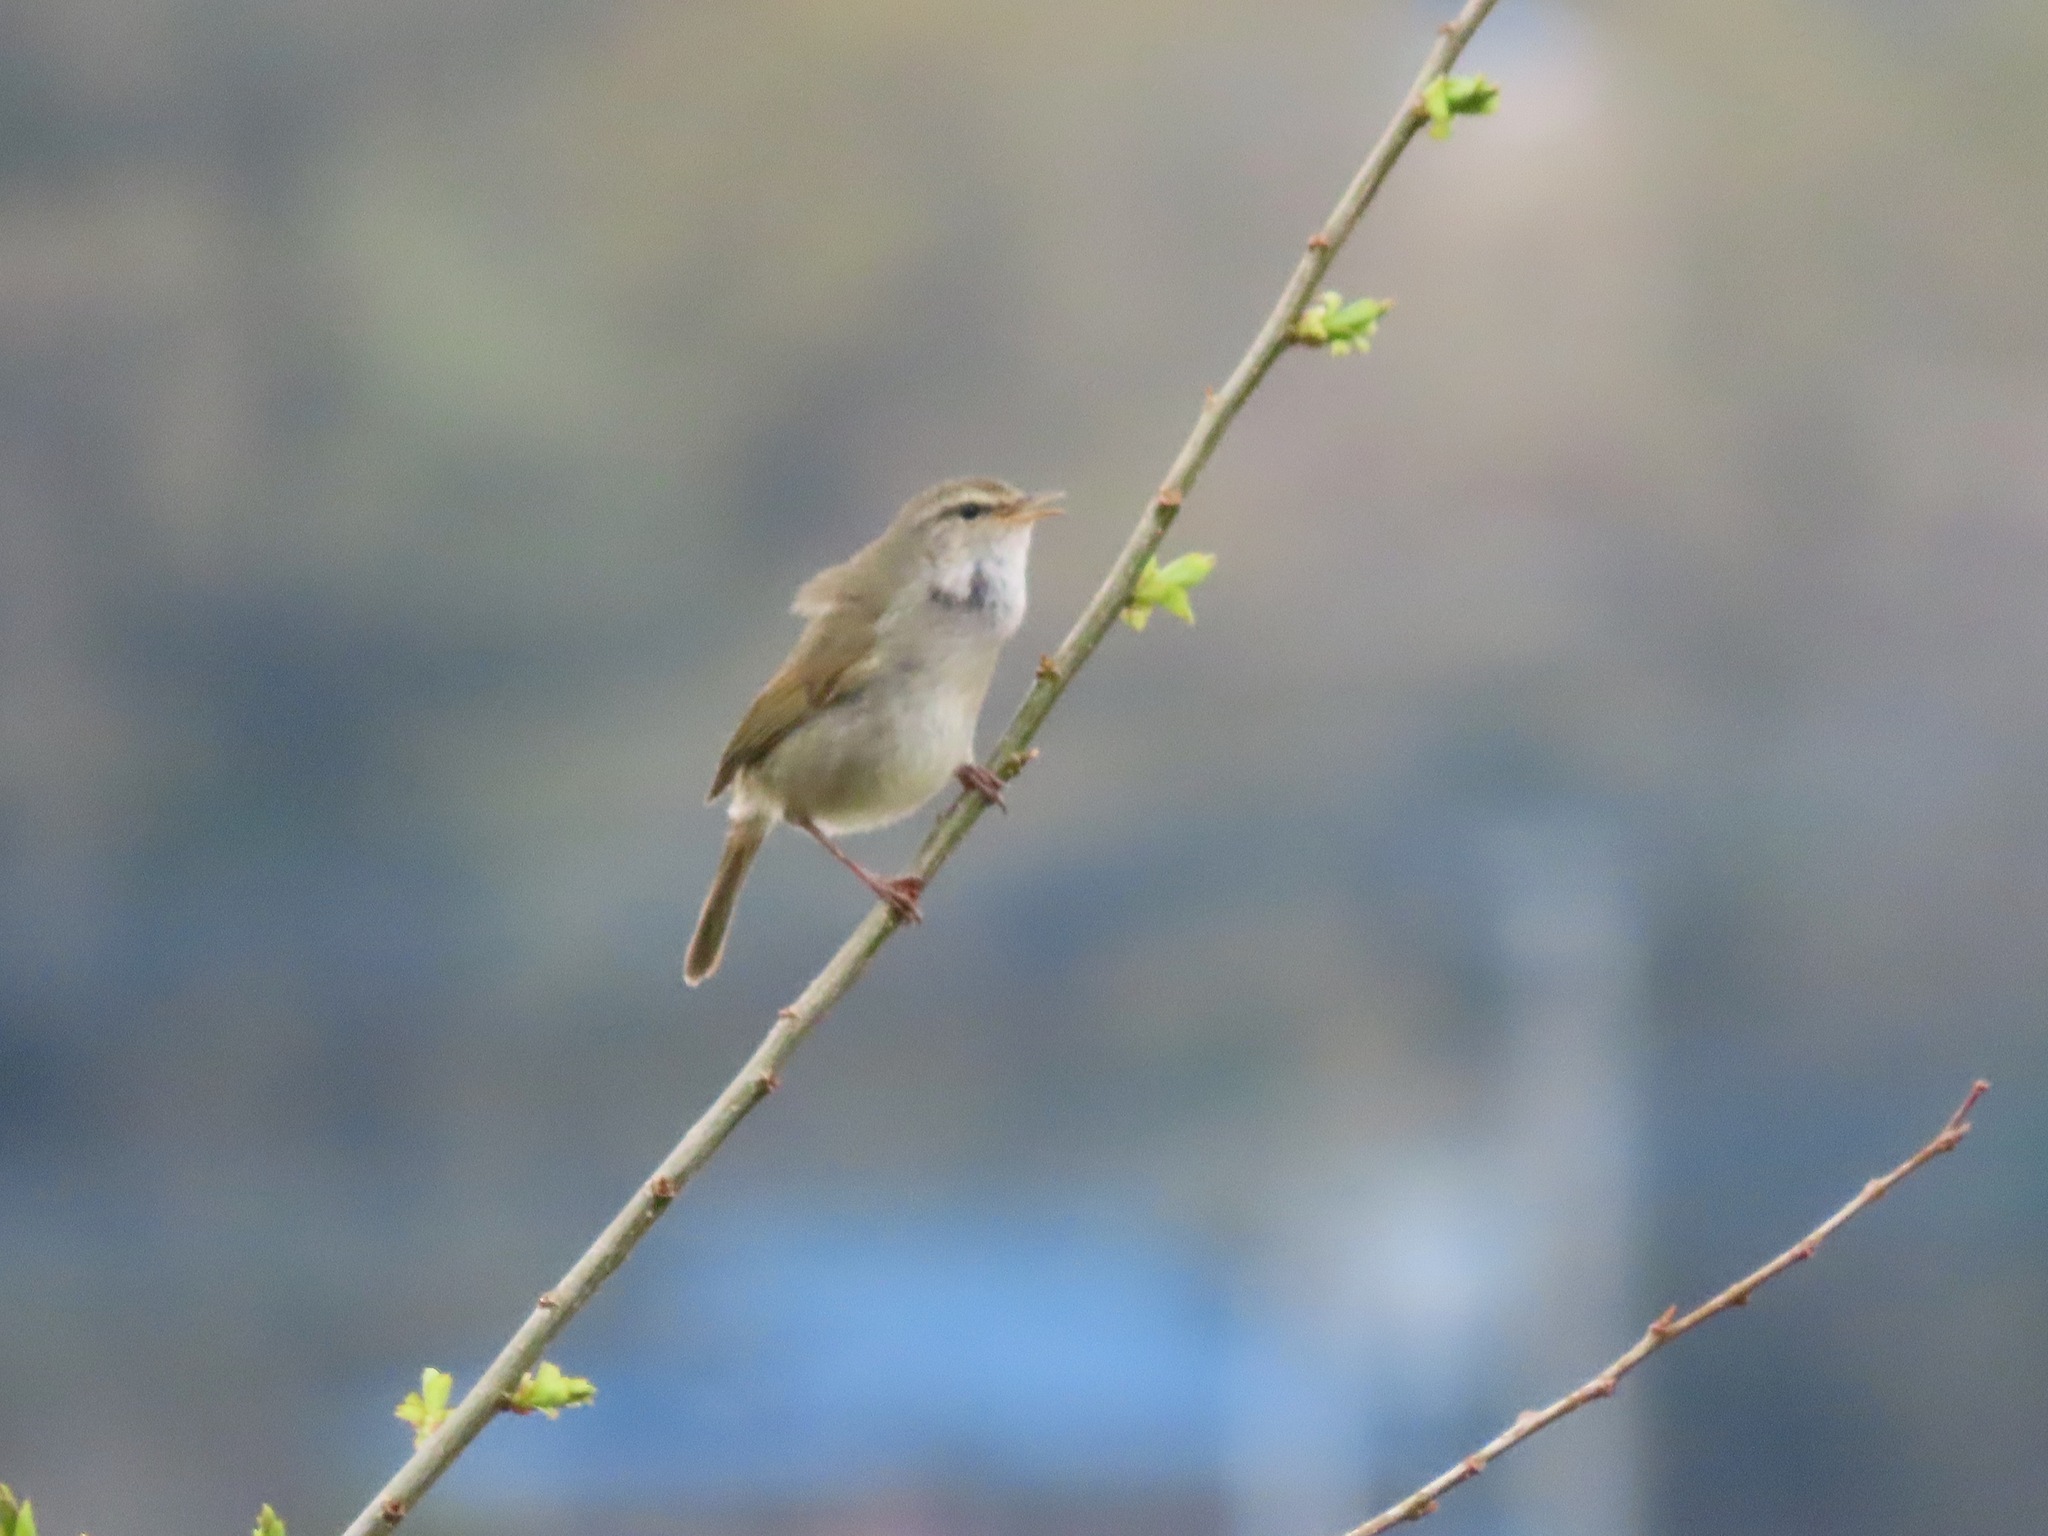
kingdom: Animalia
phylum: Chordata
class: Aves
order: Passeriformes
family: Cettiidae
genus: Horornis
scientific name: Horornis diphone
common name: Japanese bush warbler
